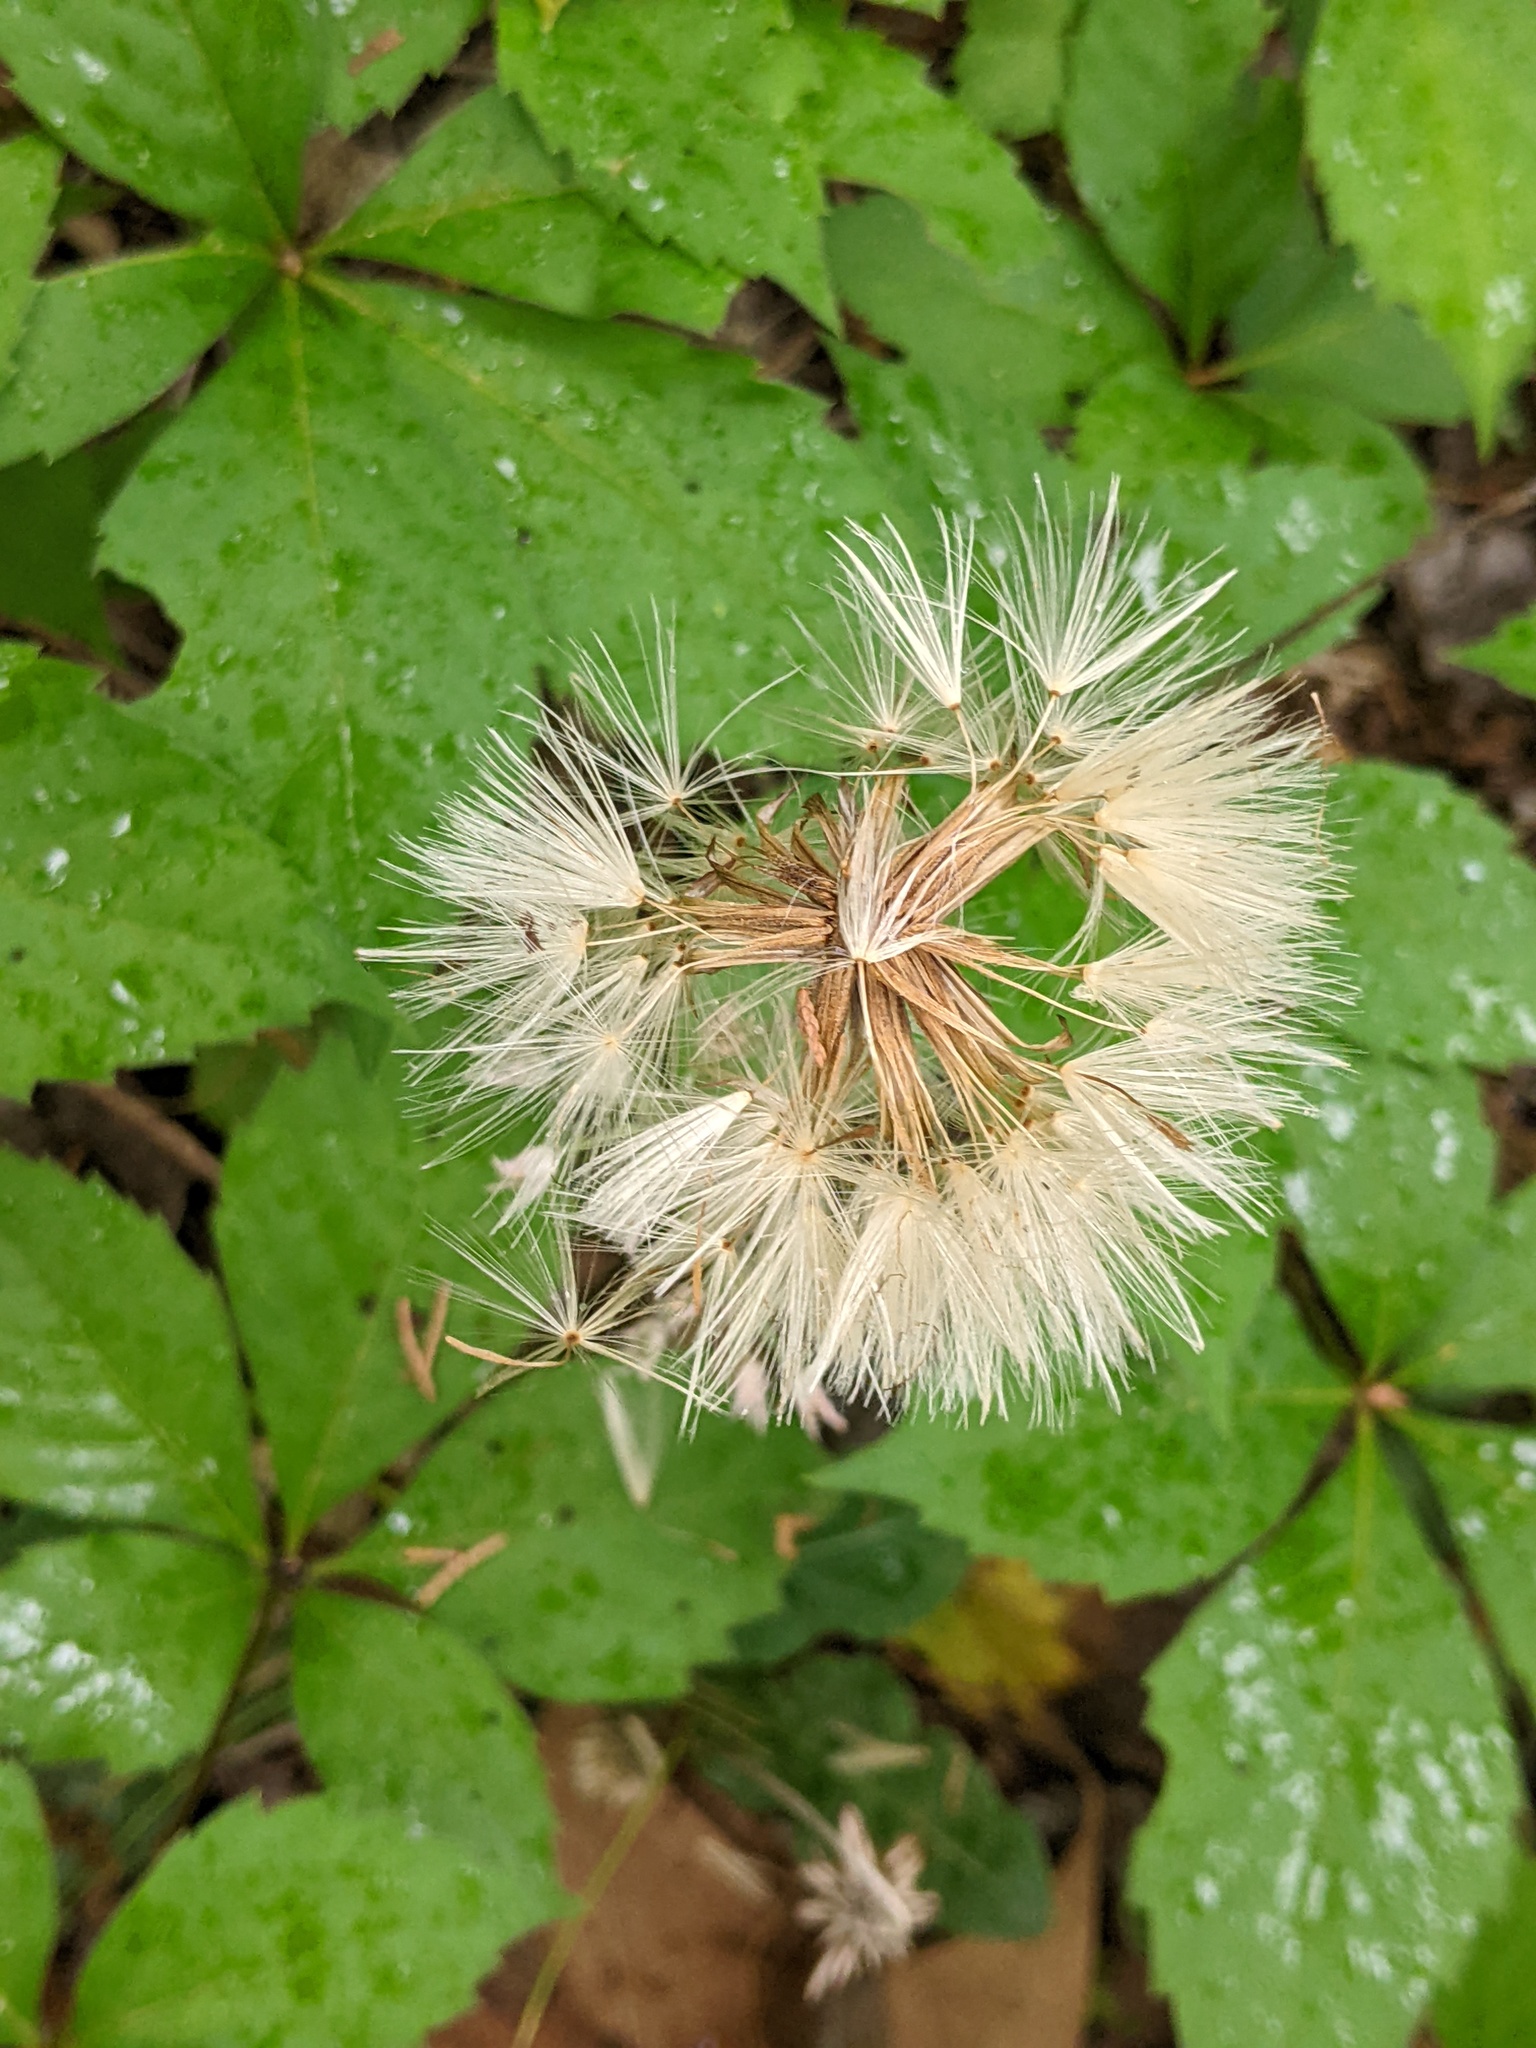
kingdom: Plantae
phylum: Tracheophyta
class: Magnoliopsida
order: Asterales
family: Asteraceae
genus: Chaptalia
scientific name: Chaptalia texana
